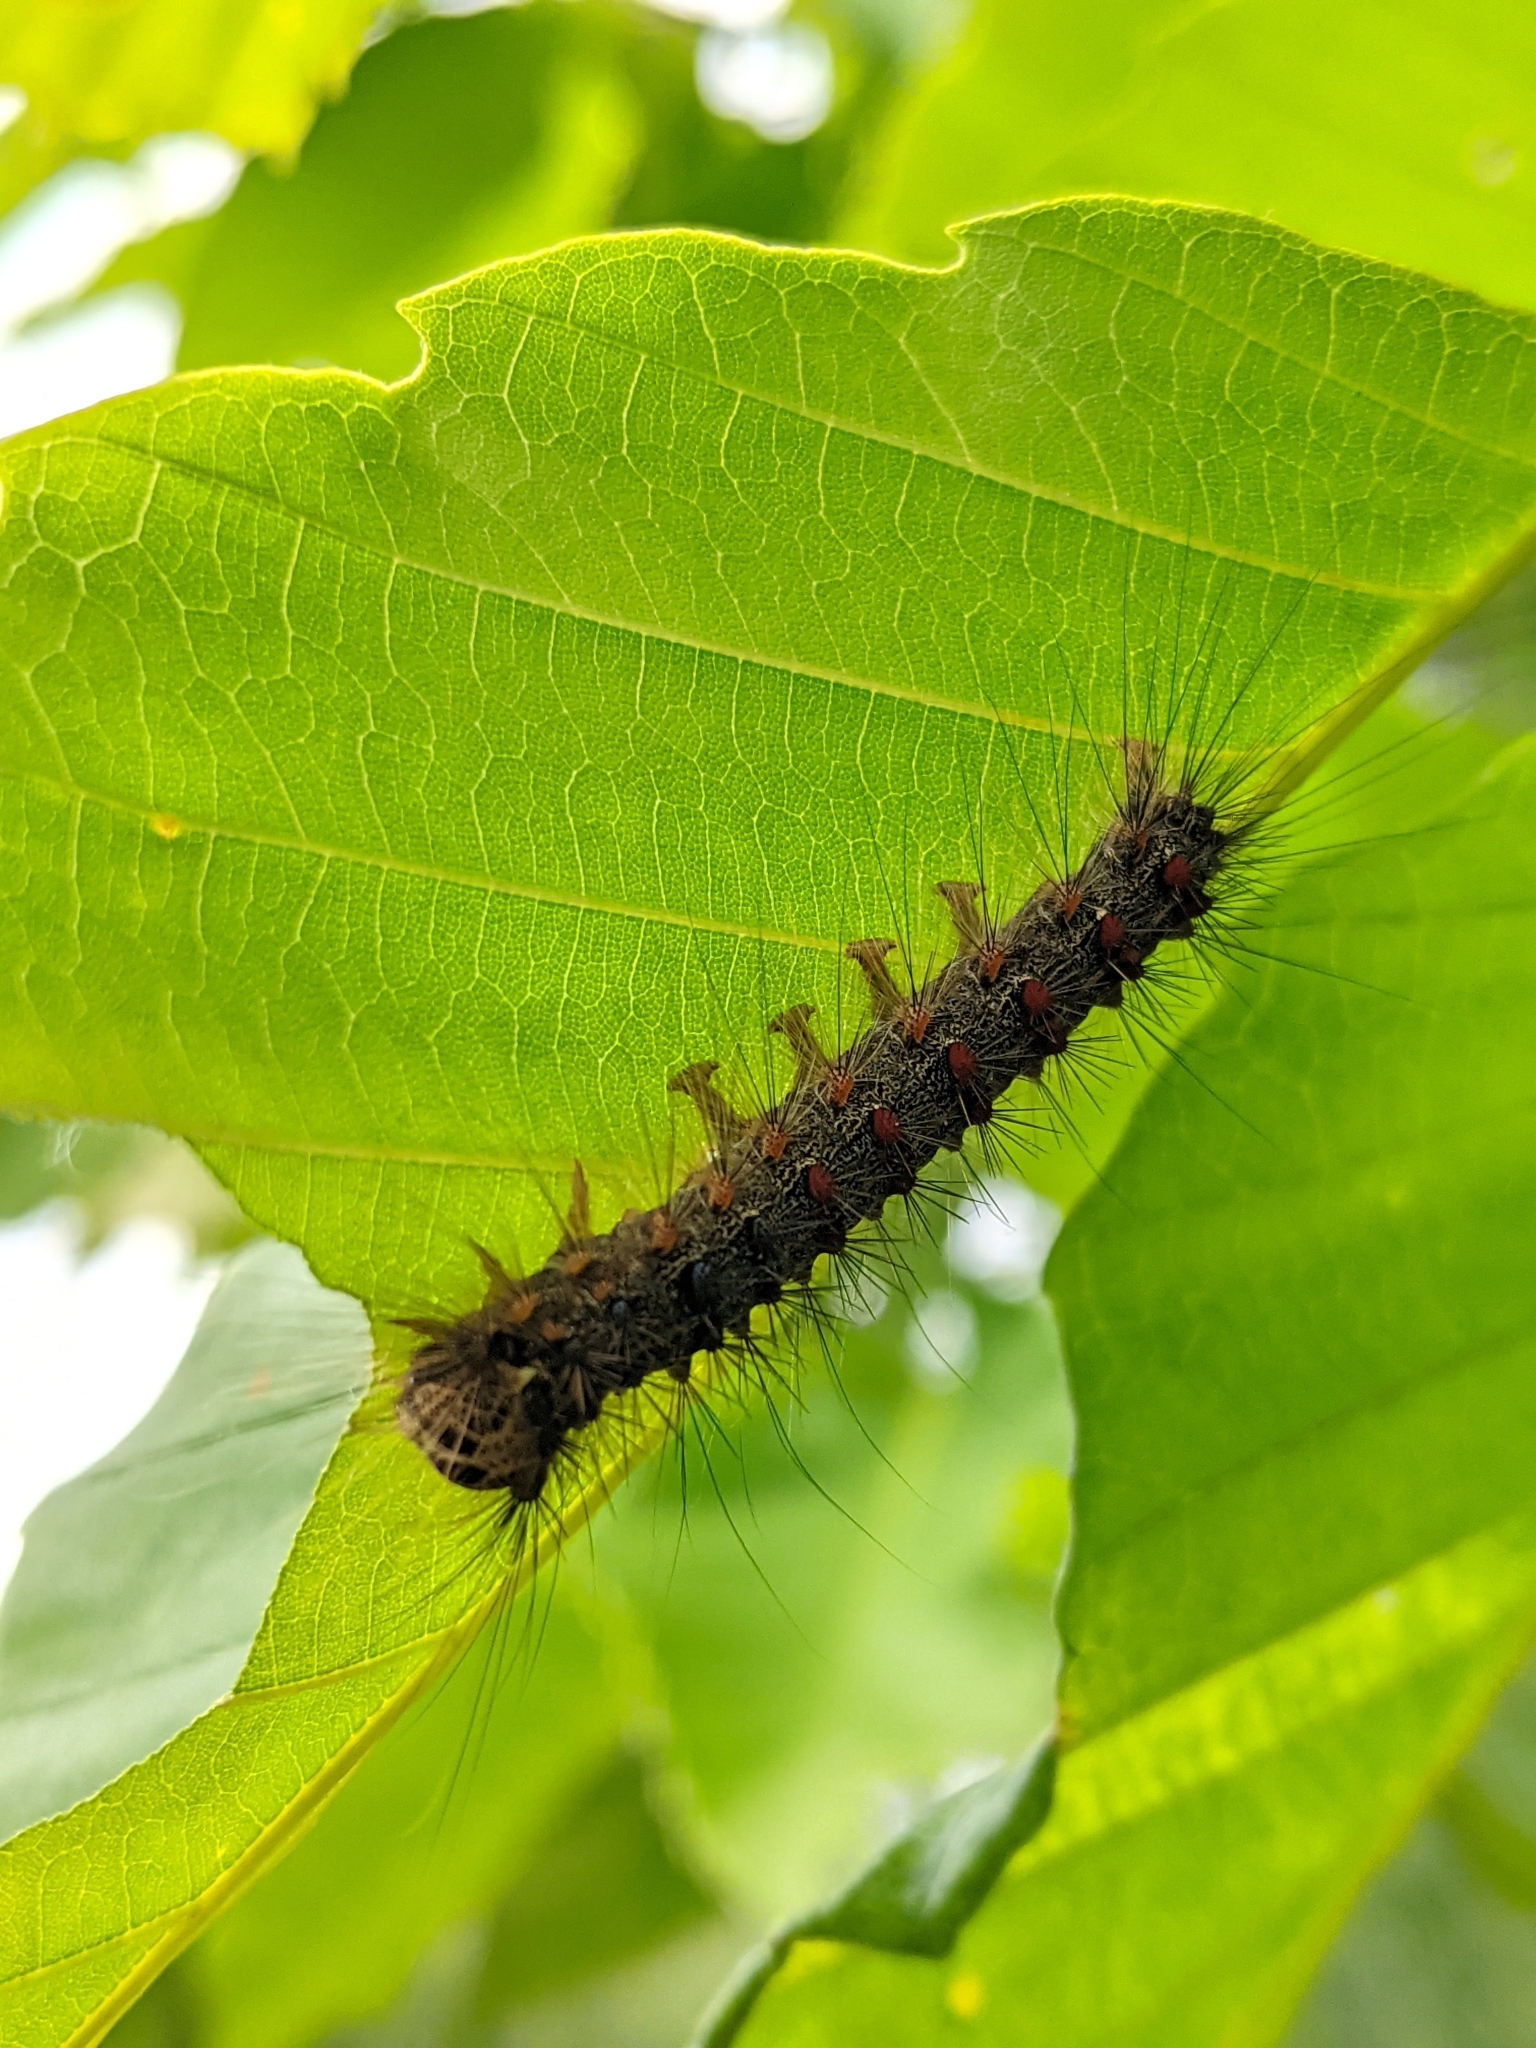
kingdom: Animalia
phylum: Arthropoda
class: Insecta
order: Lepidoptera
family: Erebidae
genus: Lymantria
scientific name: Lymantria dispar
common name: Gypsy moth
